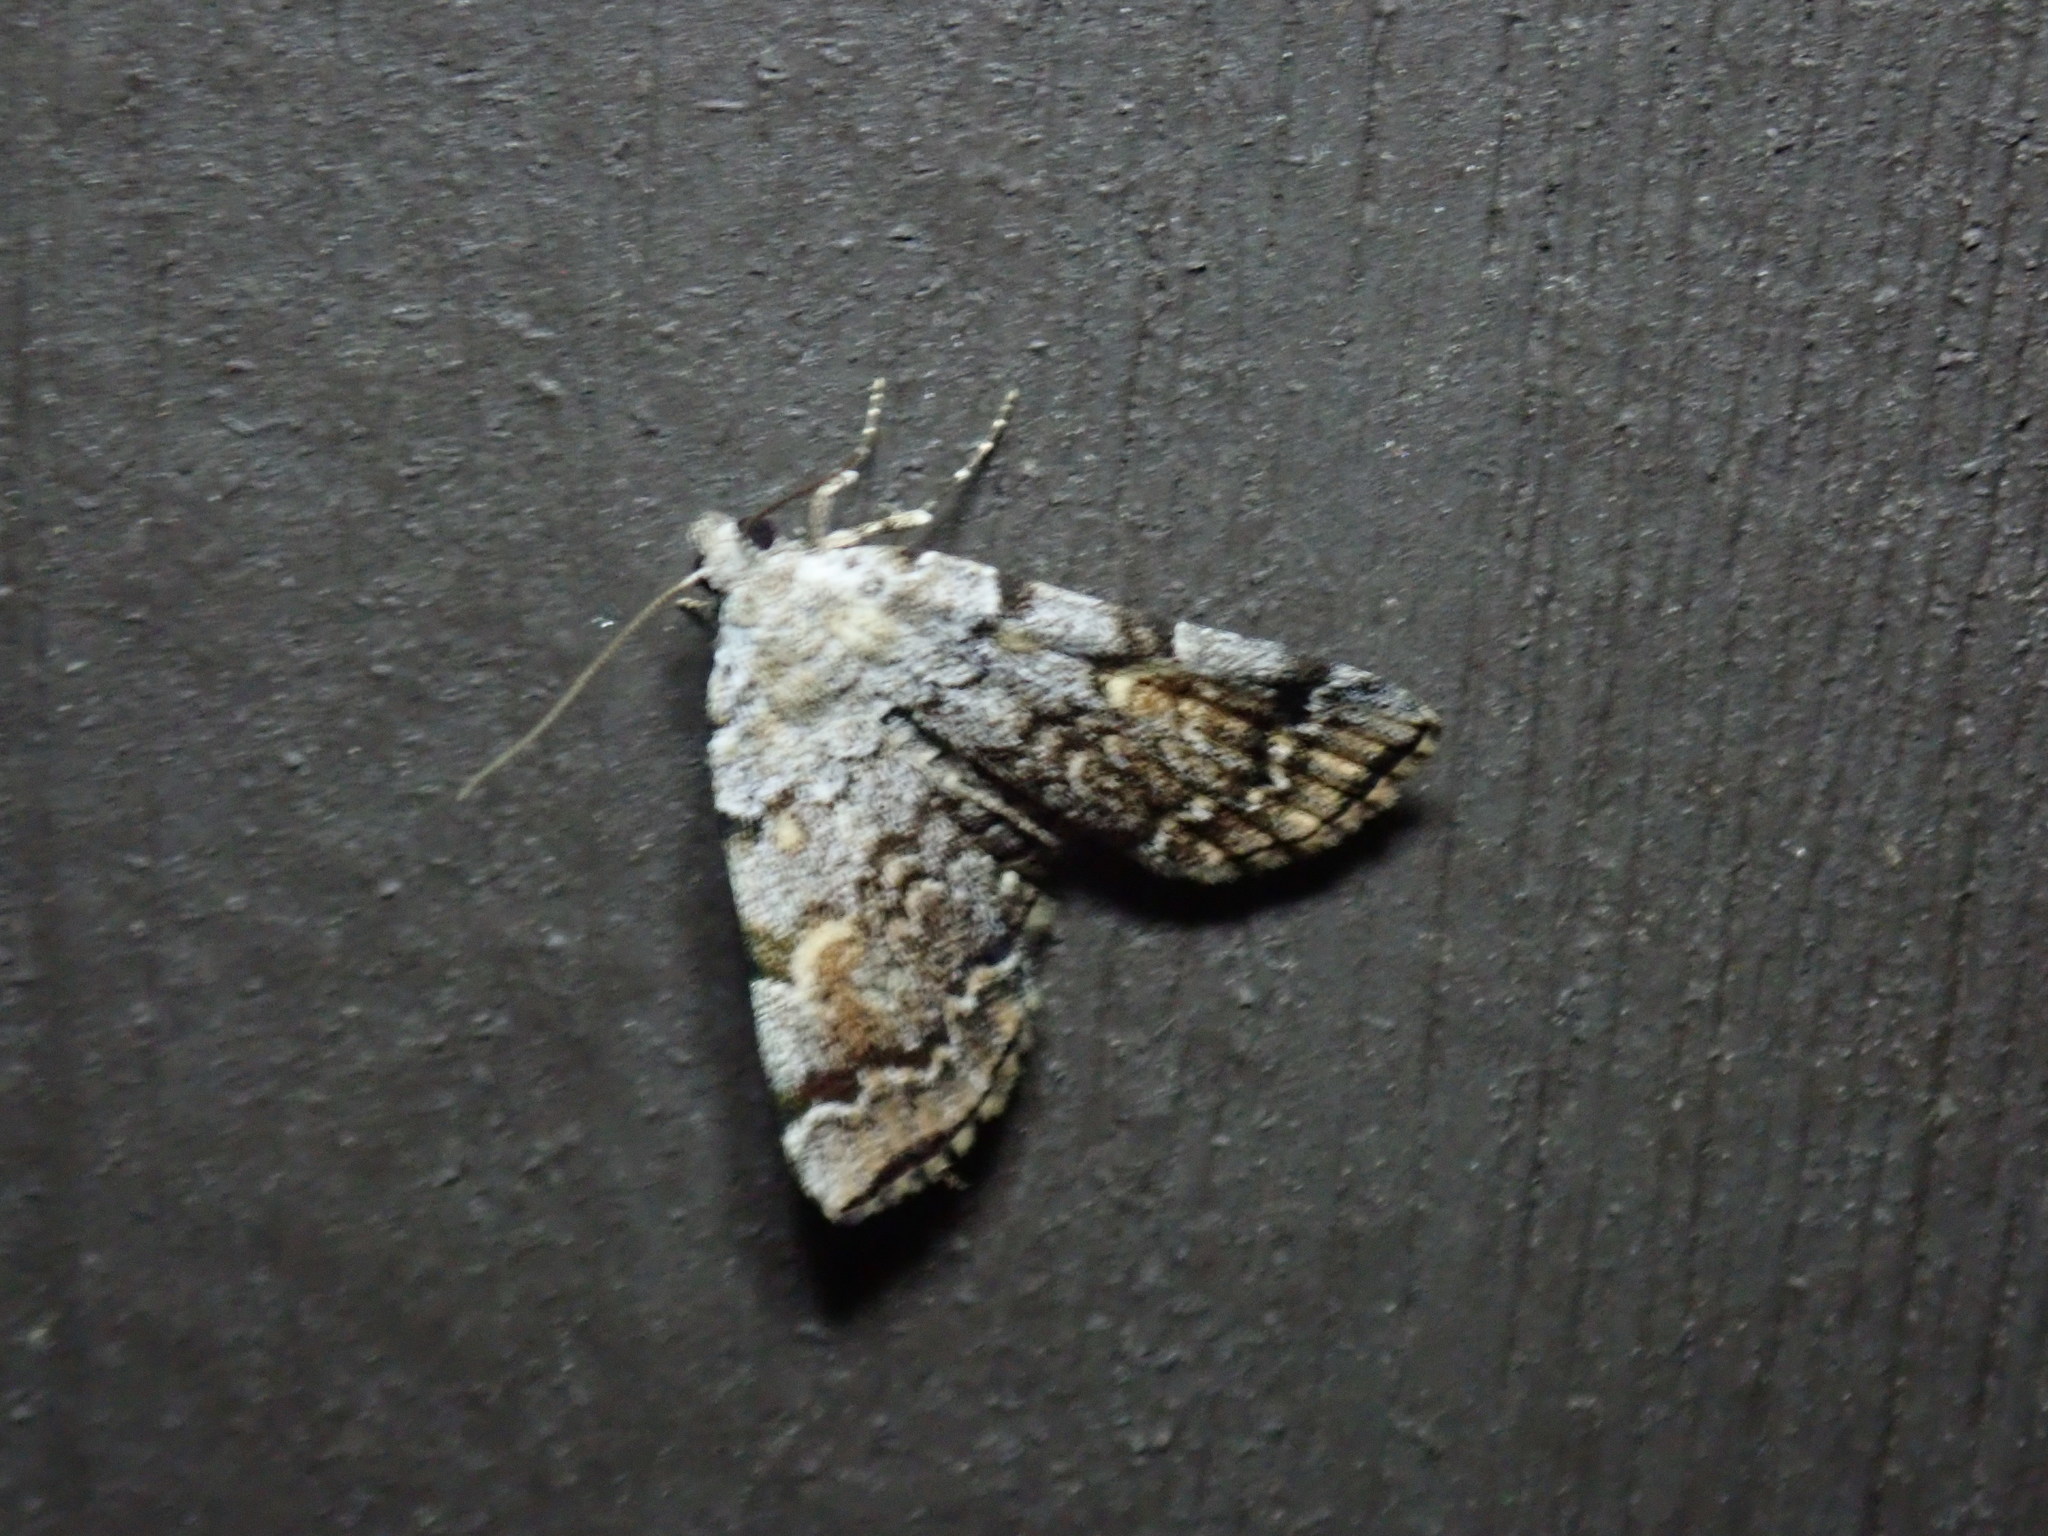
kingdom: Animalia
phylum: Arthropoda
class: Insecta
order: Lepidoptera
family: Erebidae
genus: Idia
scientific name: Idia americalis
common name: American idia moth
